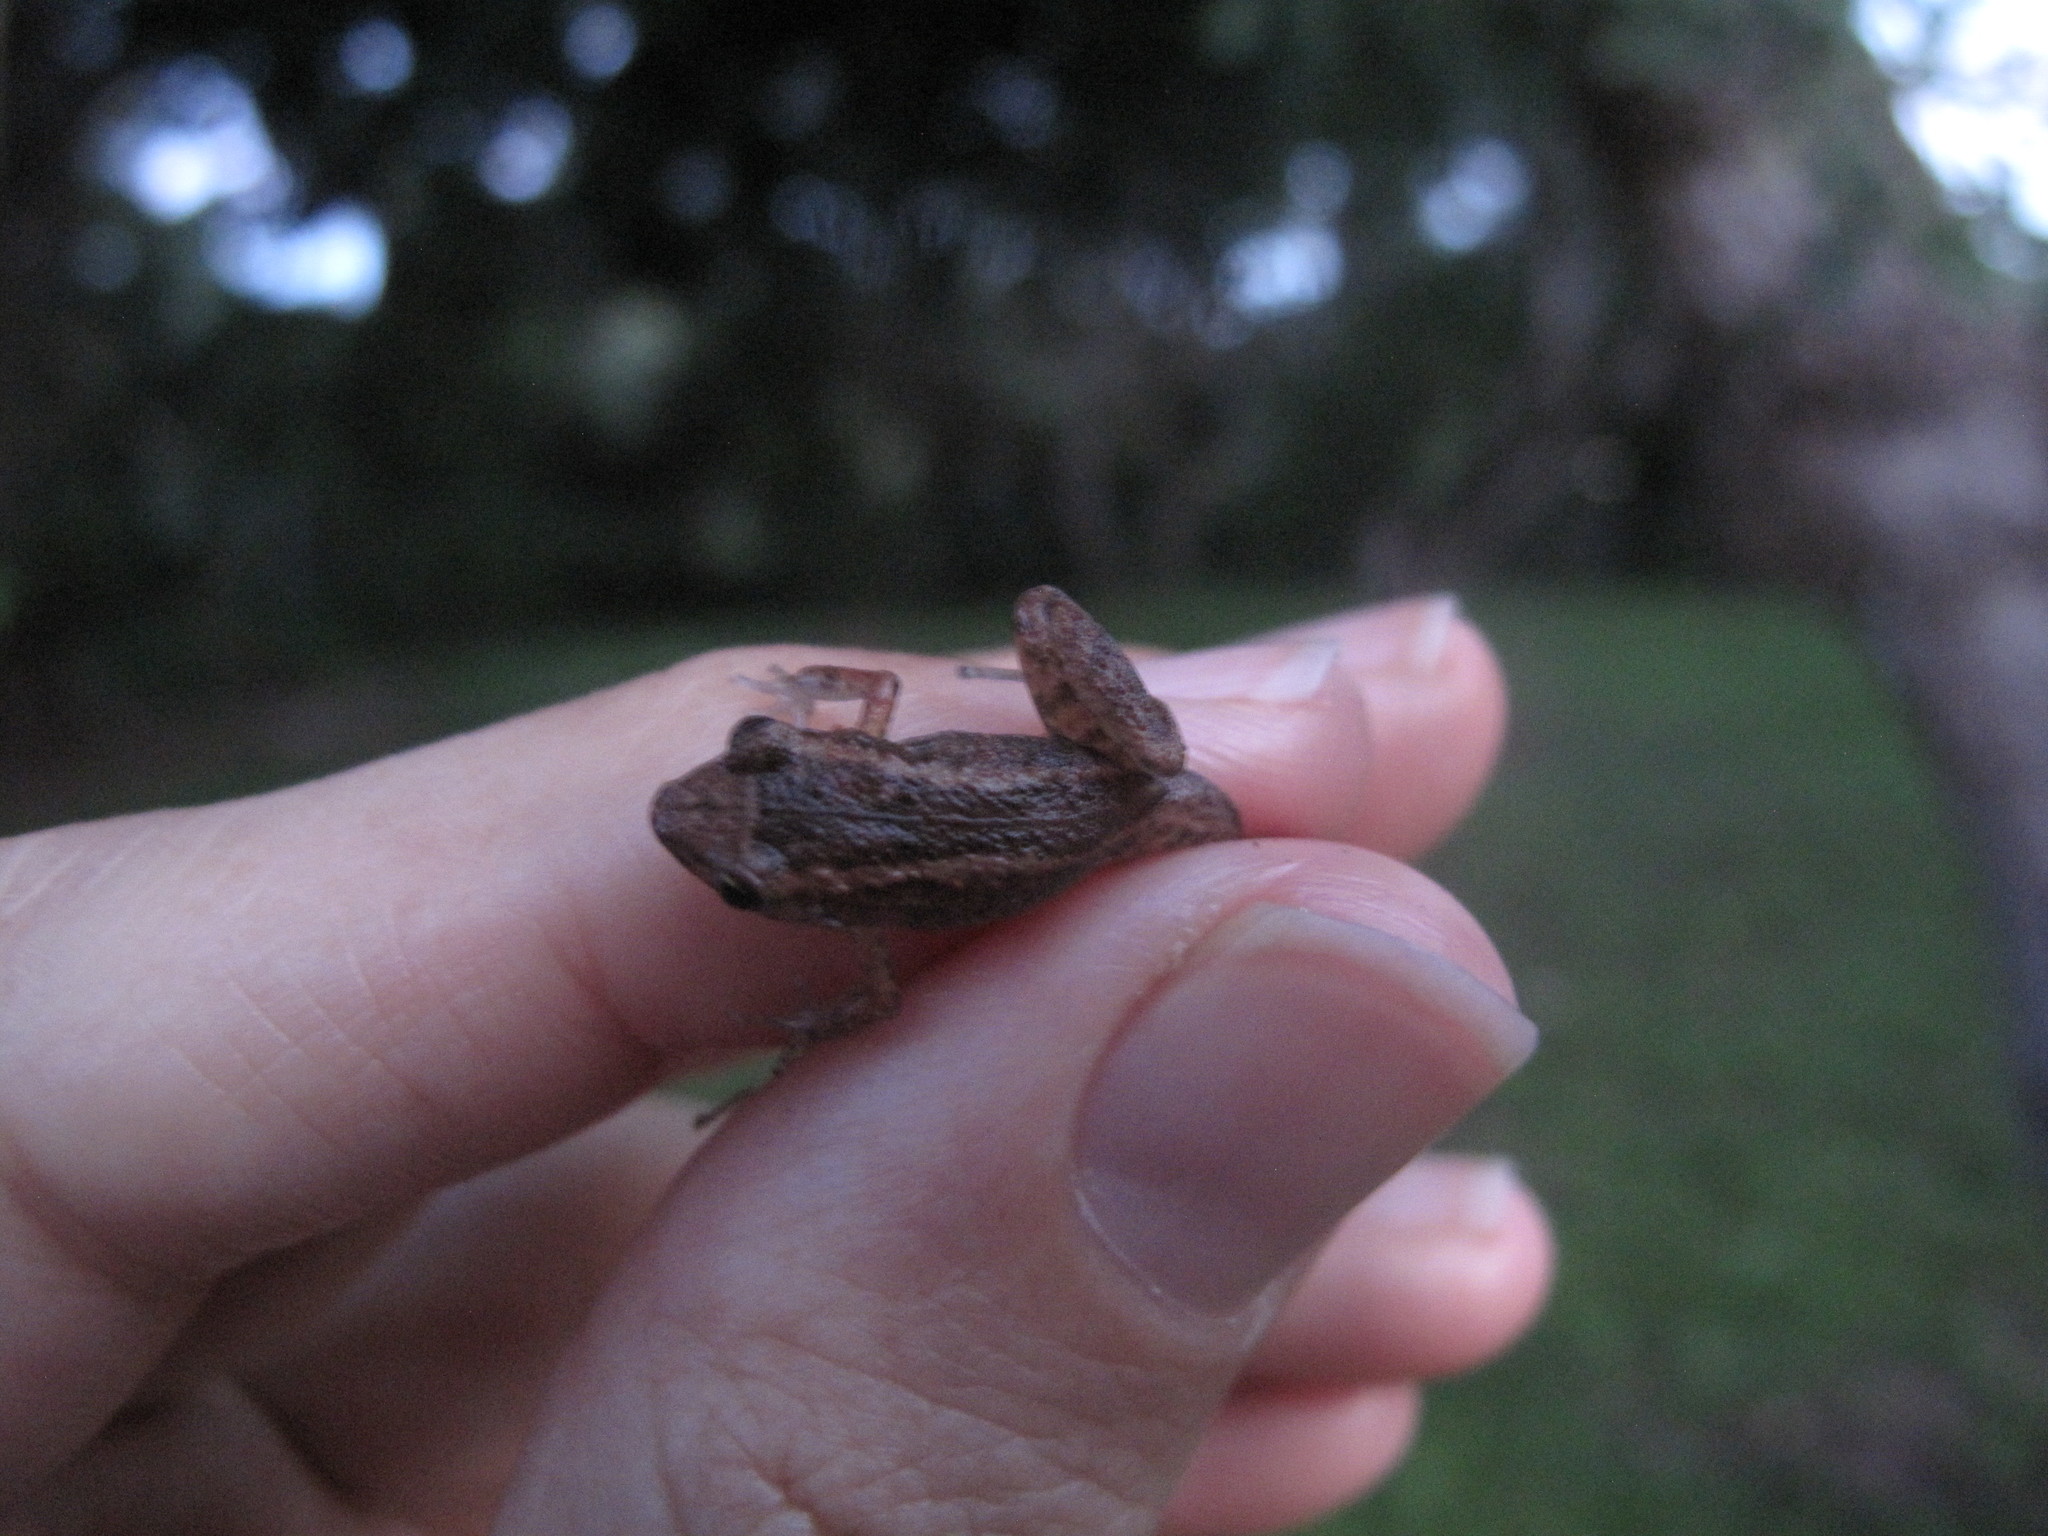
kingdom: Animalia
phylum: Chordata
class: Amphibia
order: Anura
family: Eleutherodactylidae
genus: Eleutherodactylus
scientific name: Eleutherodactylus planirostris
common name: Greenhouse frog
